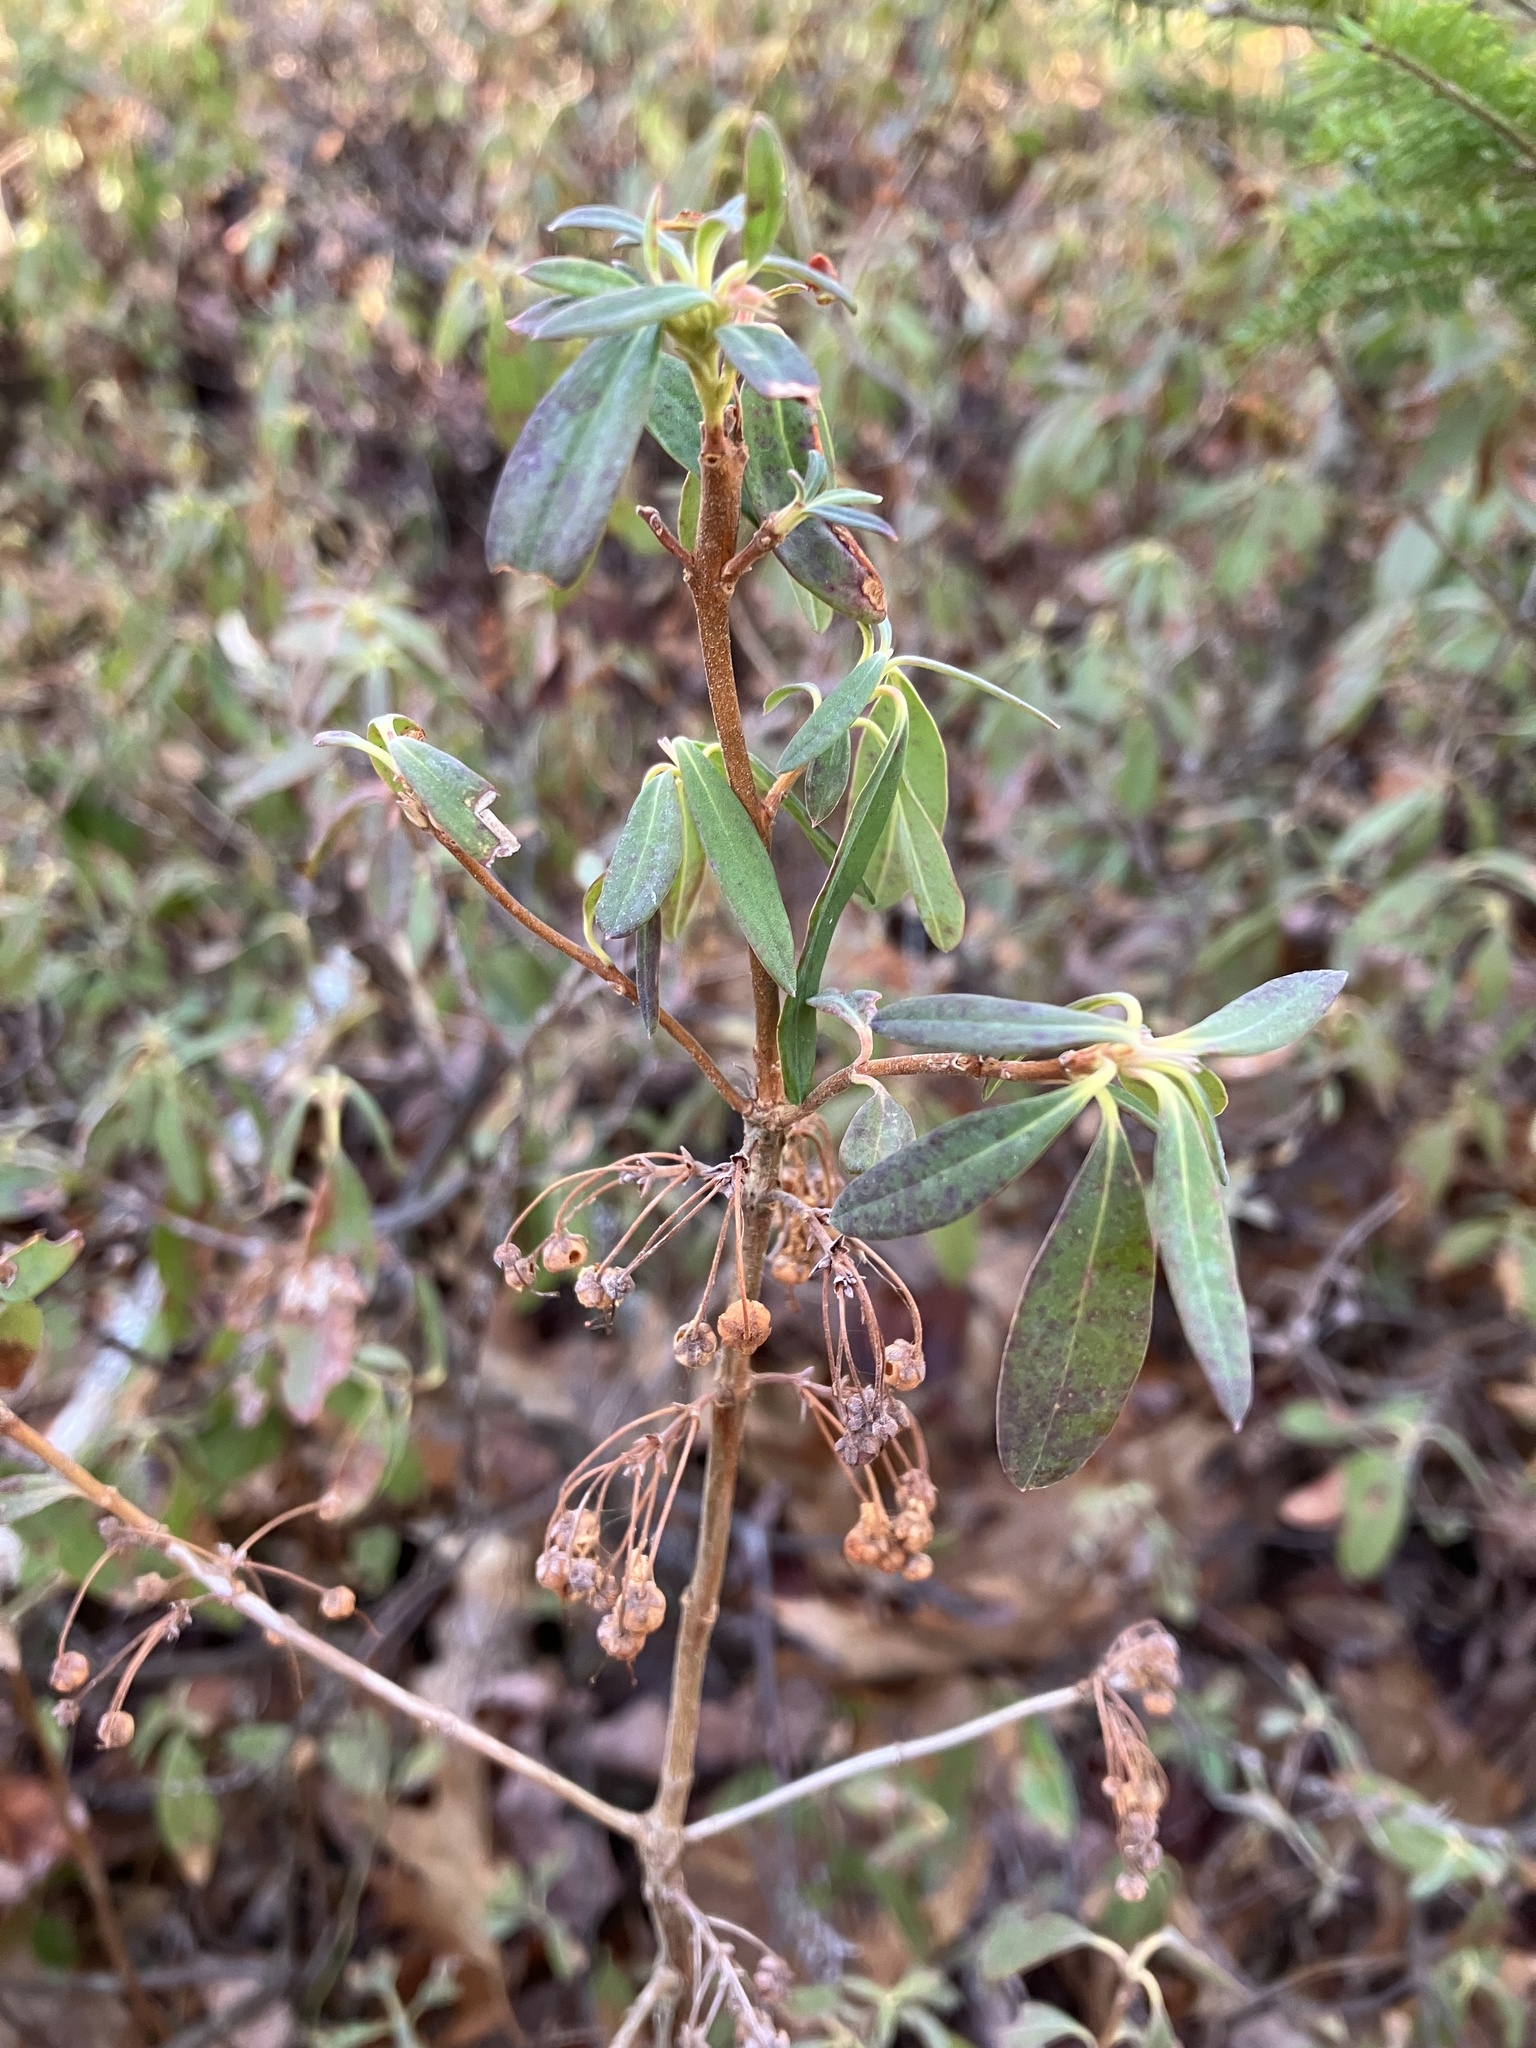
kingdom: Plantae
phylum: Tracheophyta
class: Magnoliopsida
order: Ericales
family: Ericaceae
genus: Kalmia
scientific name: Kalmia angustifolia
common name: Sheep-laurel
